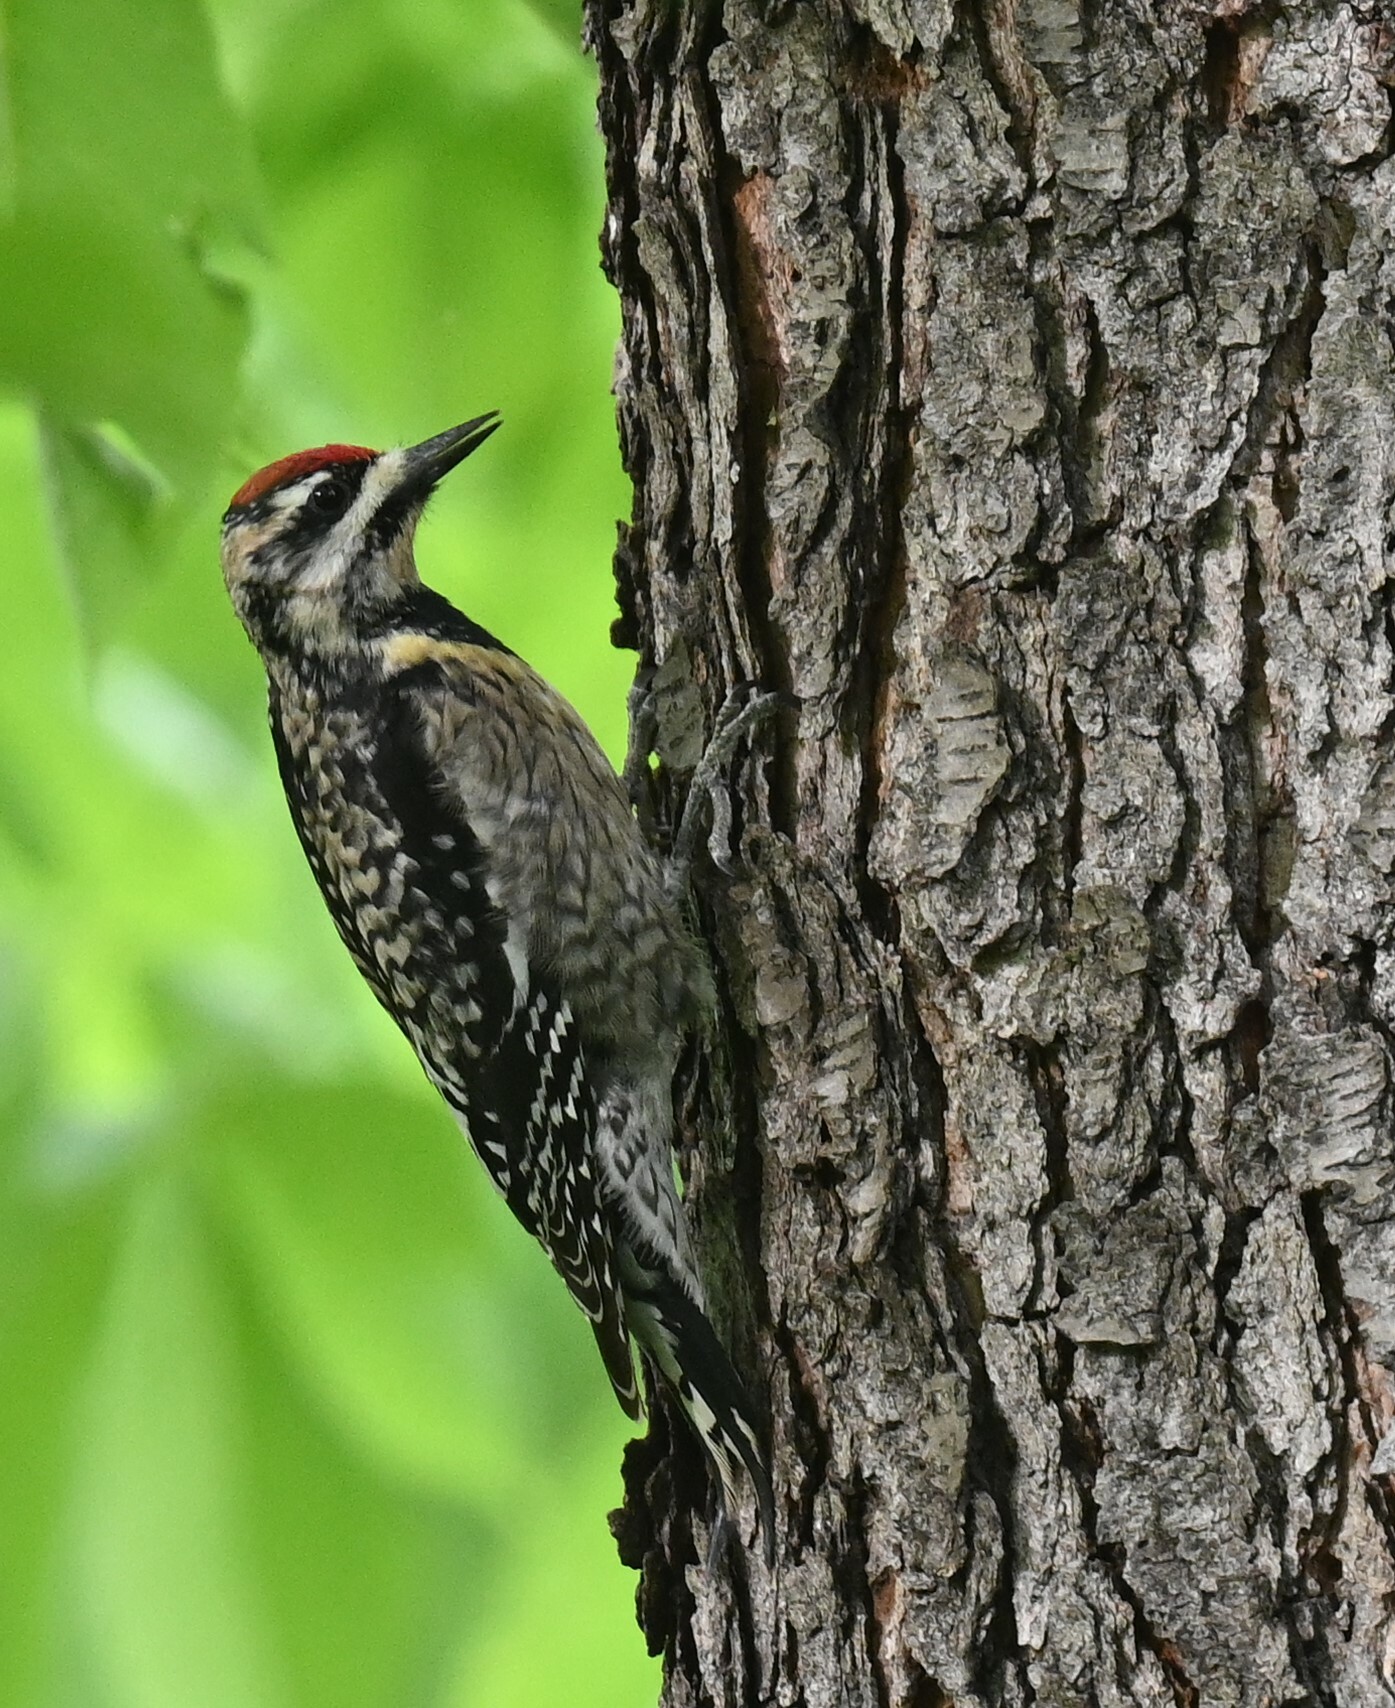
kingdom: Animalia
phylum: Chordata
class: Aves
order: Piciformes
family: Picidae
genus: Sphyrapicus
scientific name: Sphyrapicus varius
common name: Yellow-bellied sapsucker
